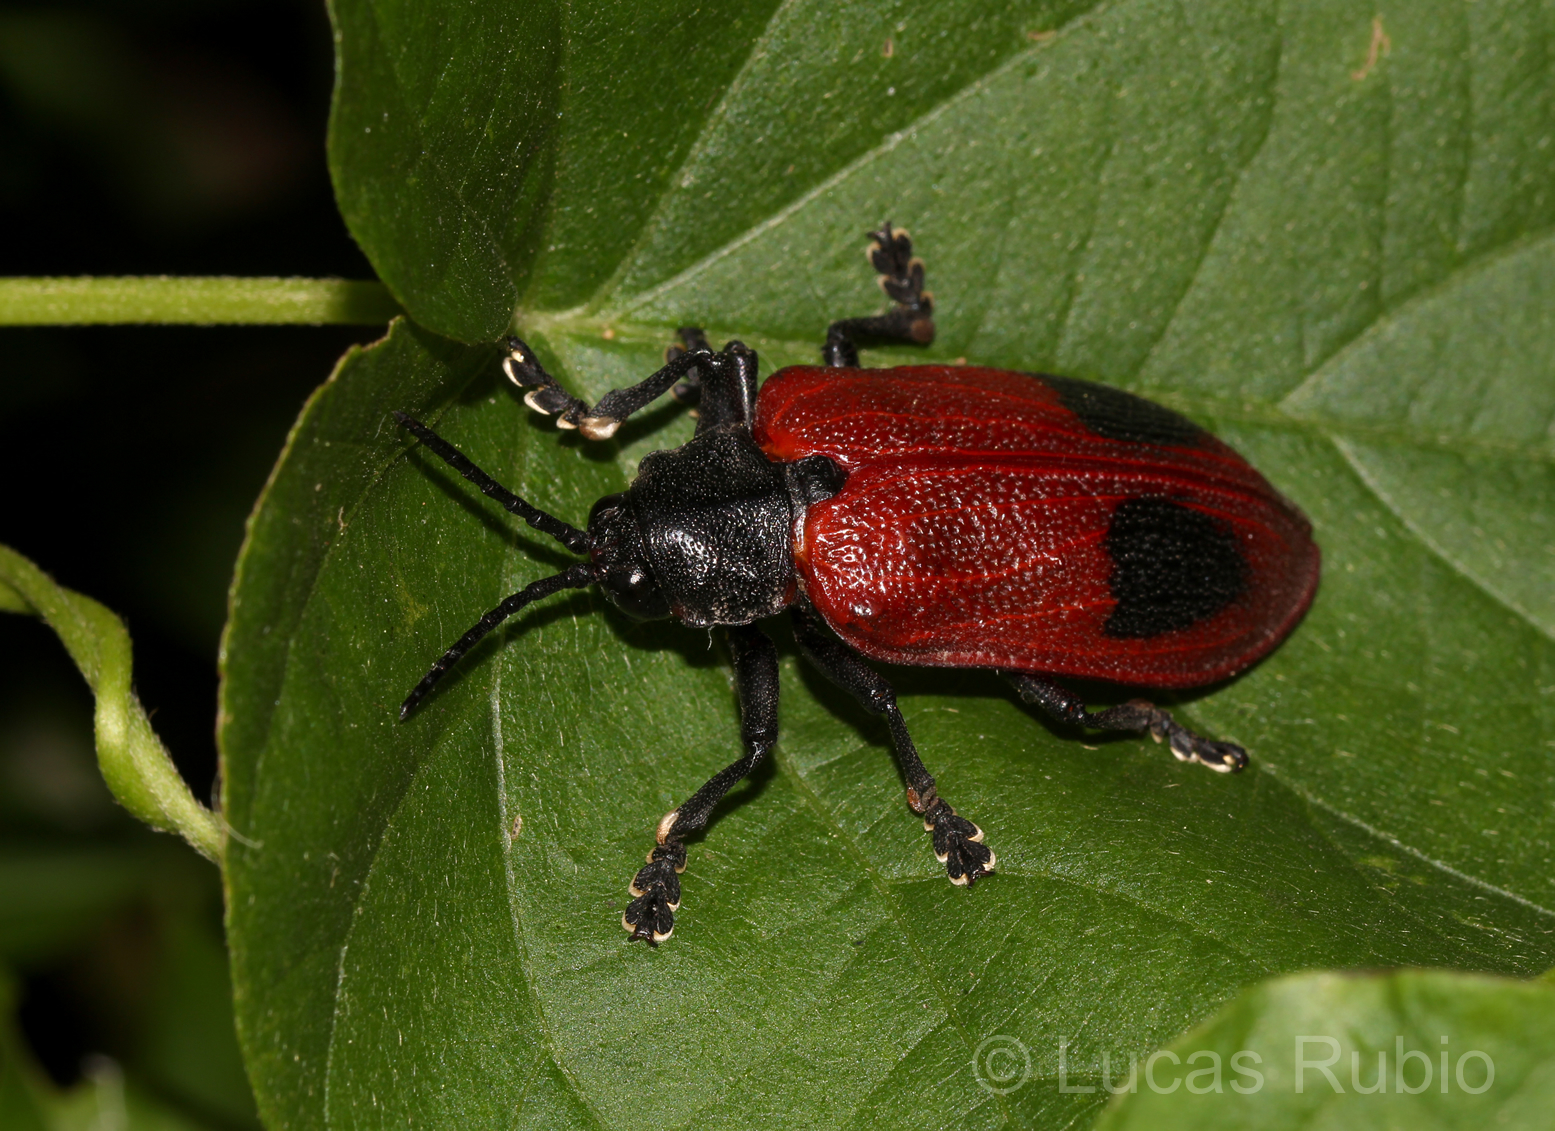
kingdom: Animalia
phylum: Arthropoda
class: Insecta
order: Coleoptera
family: Chrysomelidae
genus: Coraliomela
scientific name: Coraliomela quadrimaculata
